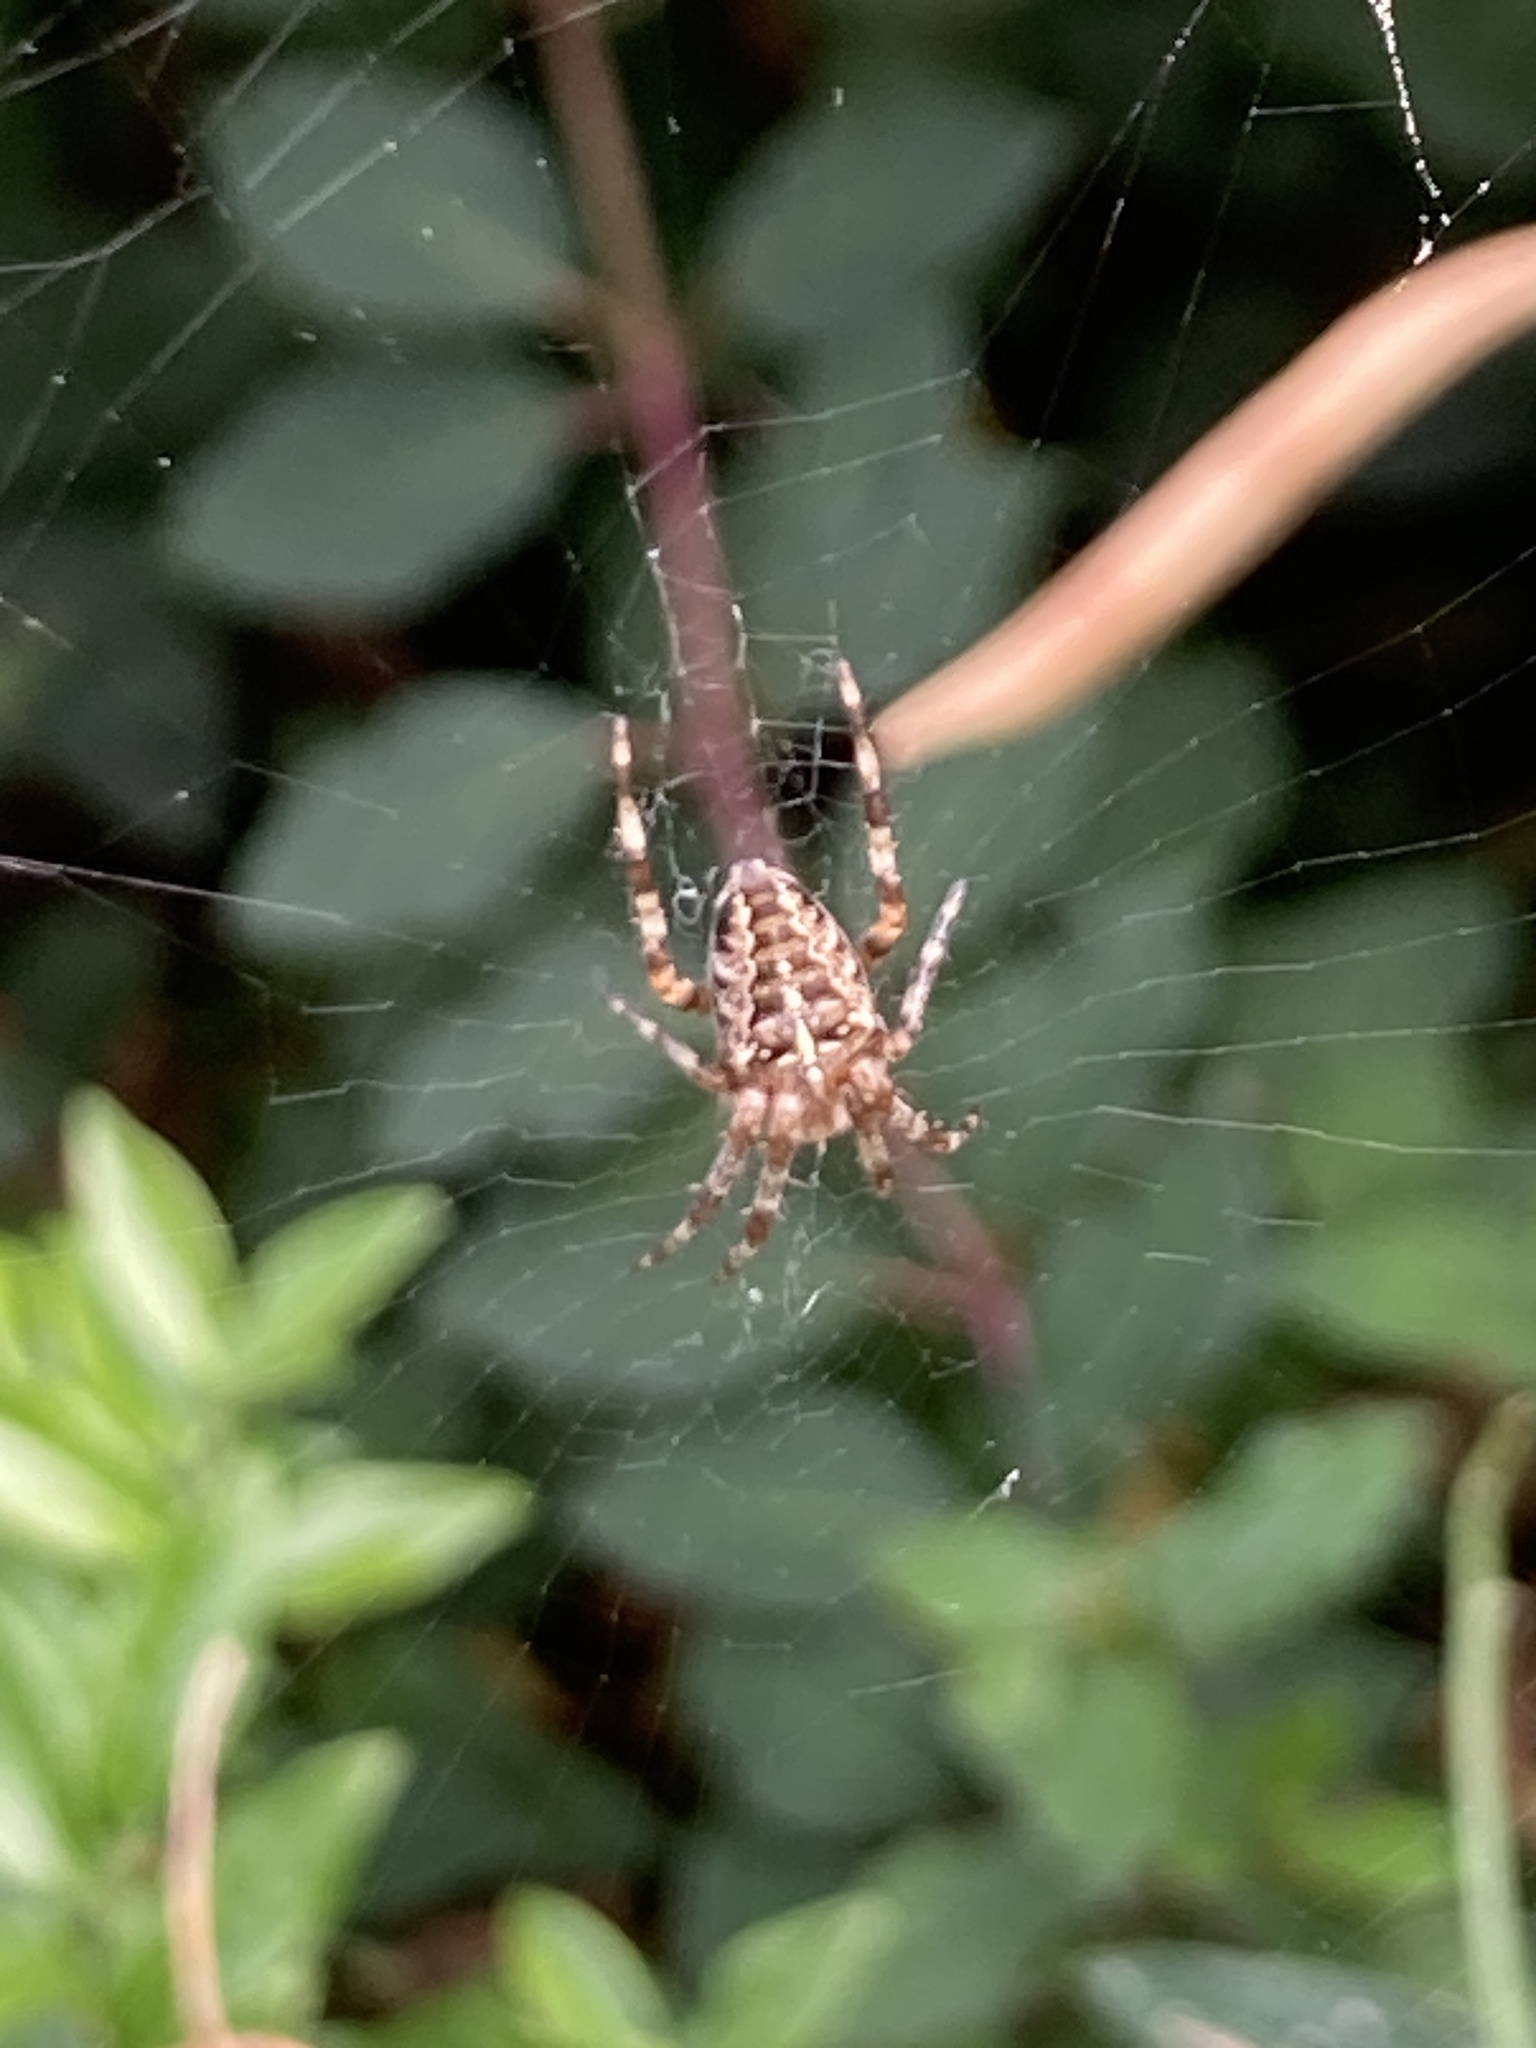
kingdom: Animalia
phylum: Arthropoda
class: Arachnida
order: Araneae
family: Araneidae
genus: Araneus
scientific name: Araneus diadematus
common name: Cross orbweaver
